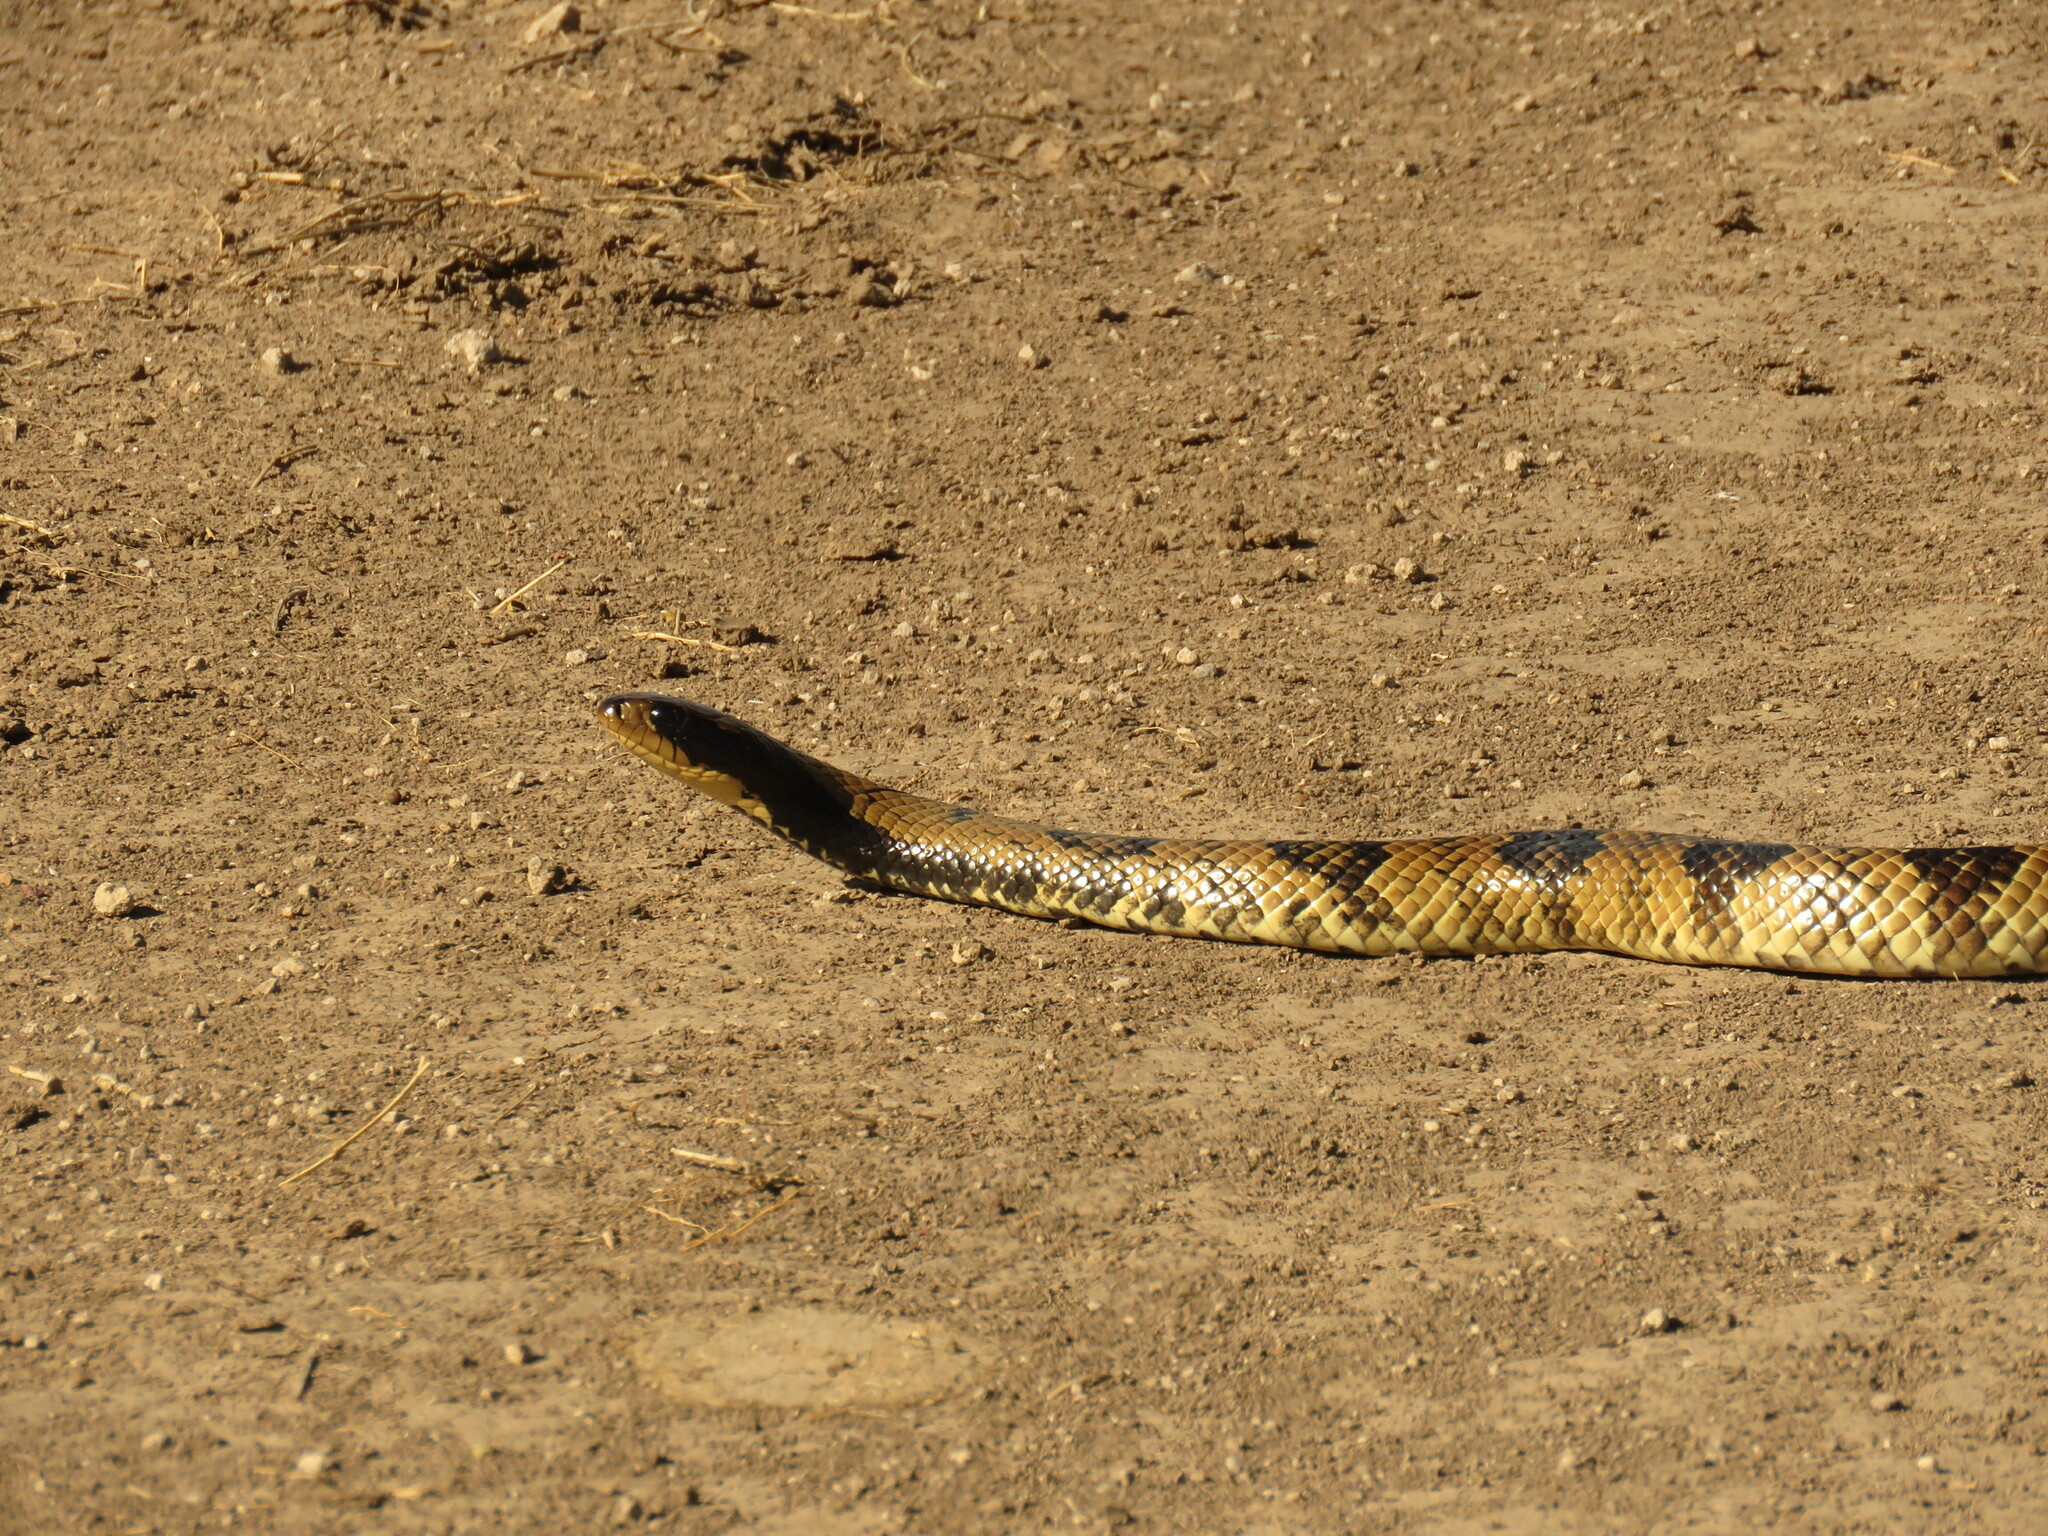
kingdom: Animalia
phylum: Chordata
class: Squamata
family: Colubridae
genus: Hydrodynastes
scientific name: Hydrodynastes gigas
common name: False water cobra
